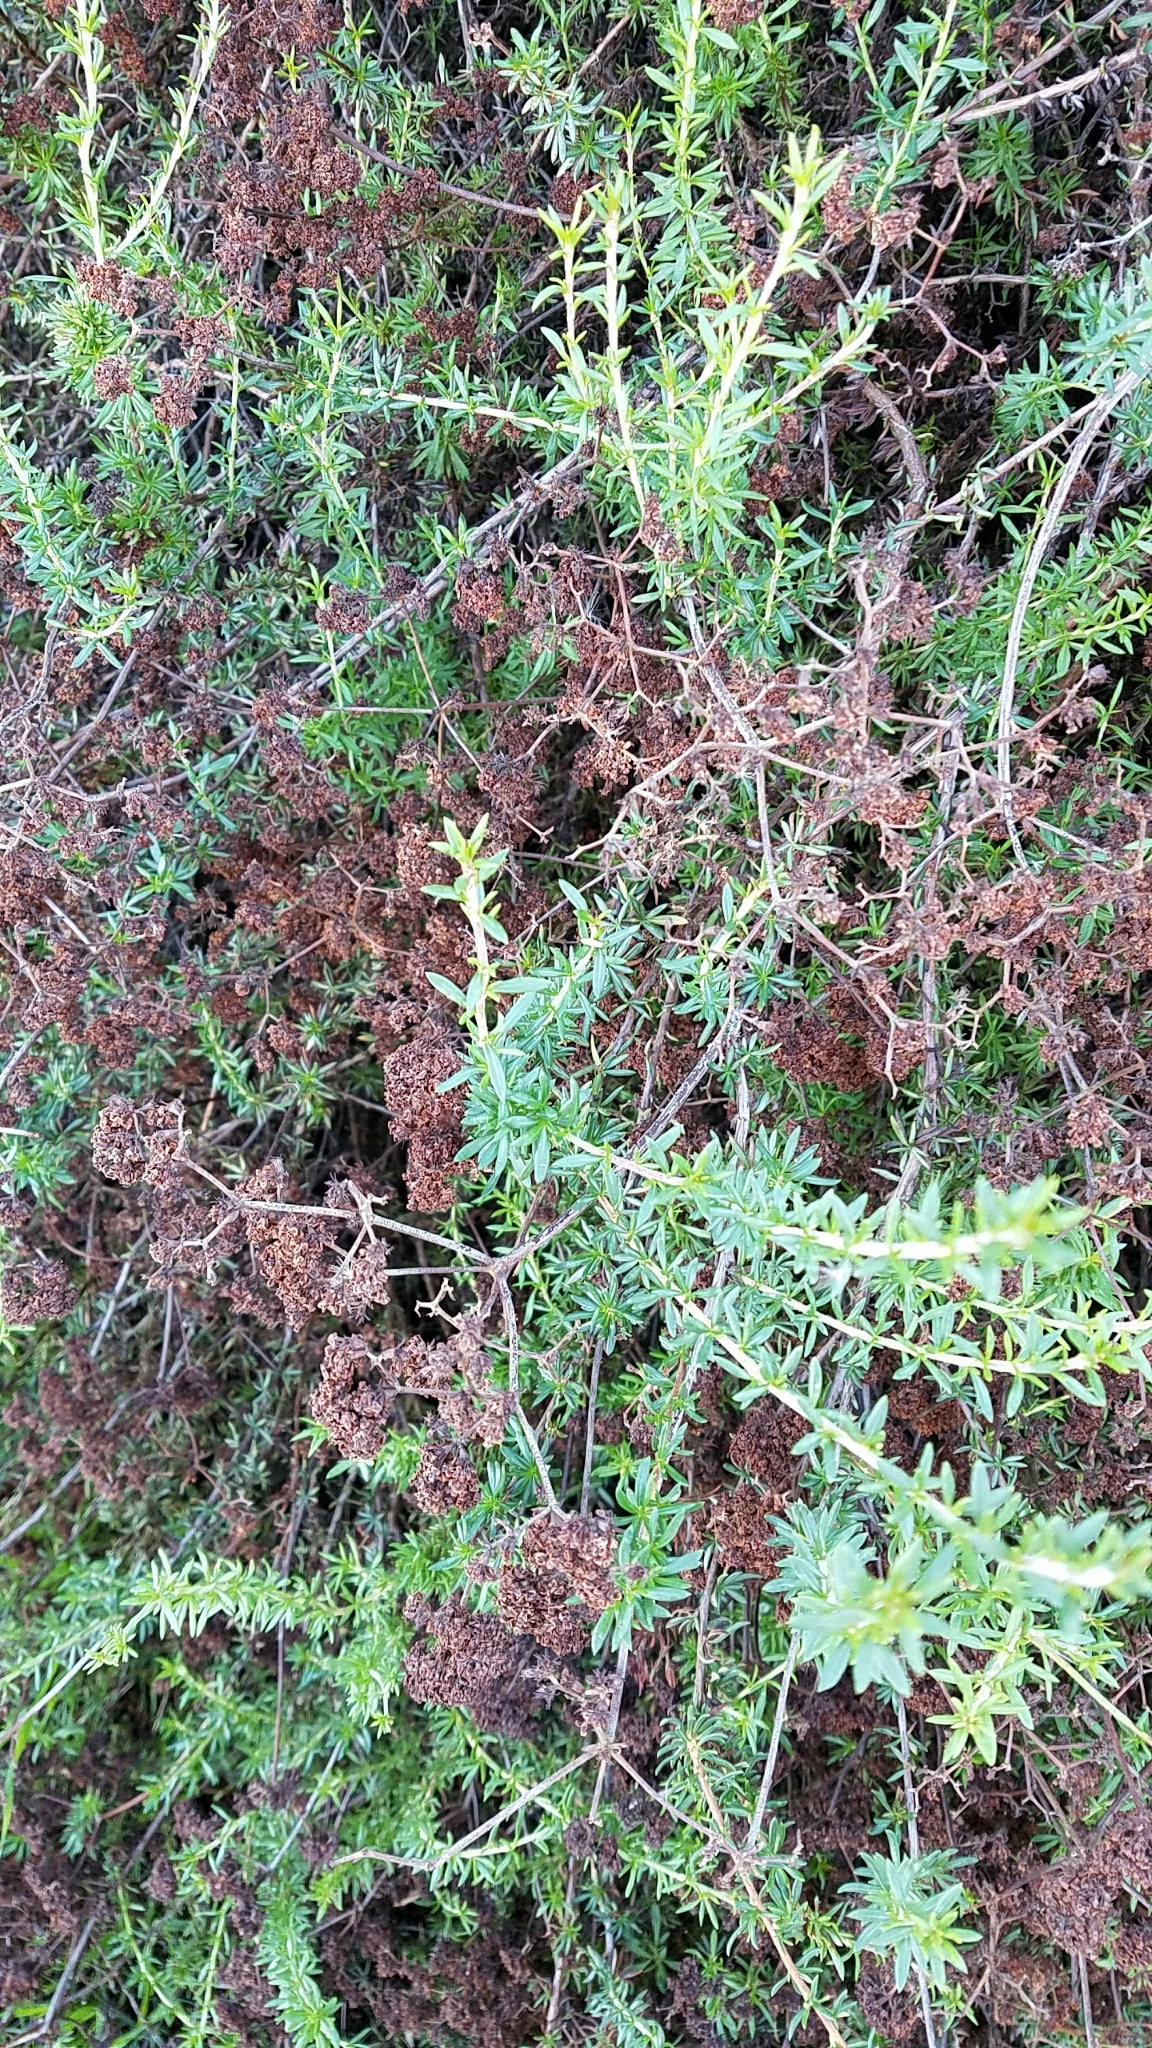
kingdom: Plantae
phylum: Tracheophyta
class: Magnoliopsida
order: Caryophyllales
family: Polygonaceae
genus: Eriogonum
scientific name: Eriogonum fasciculatum
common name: California wild buckwheat
